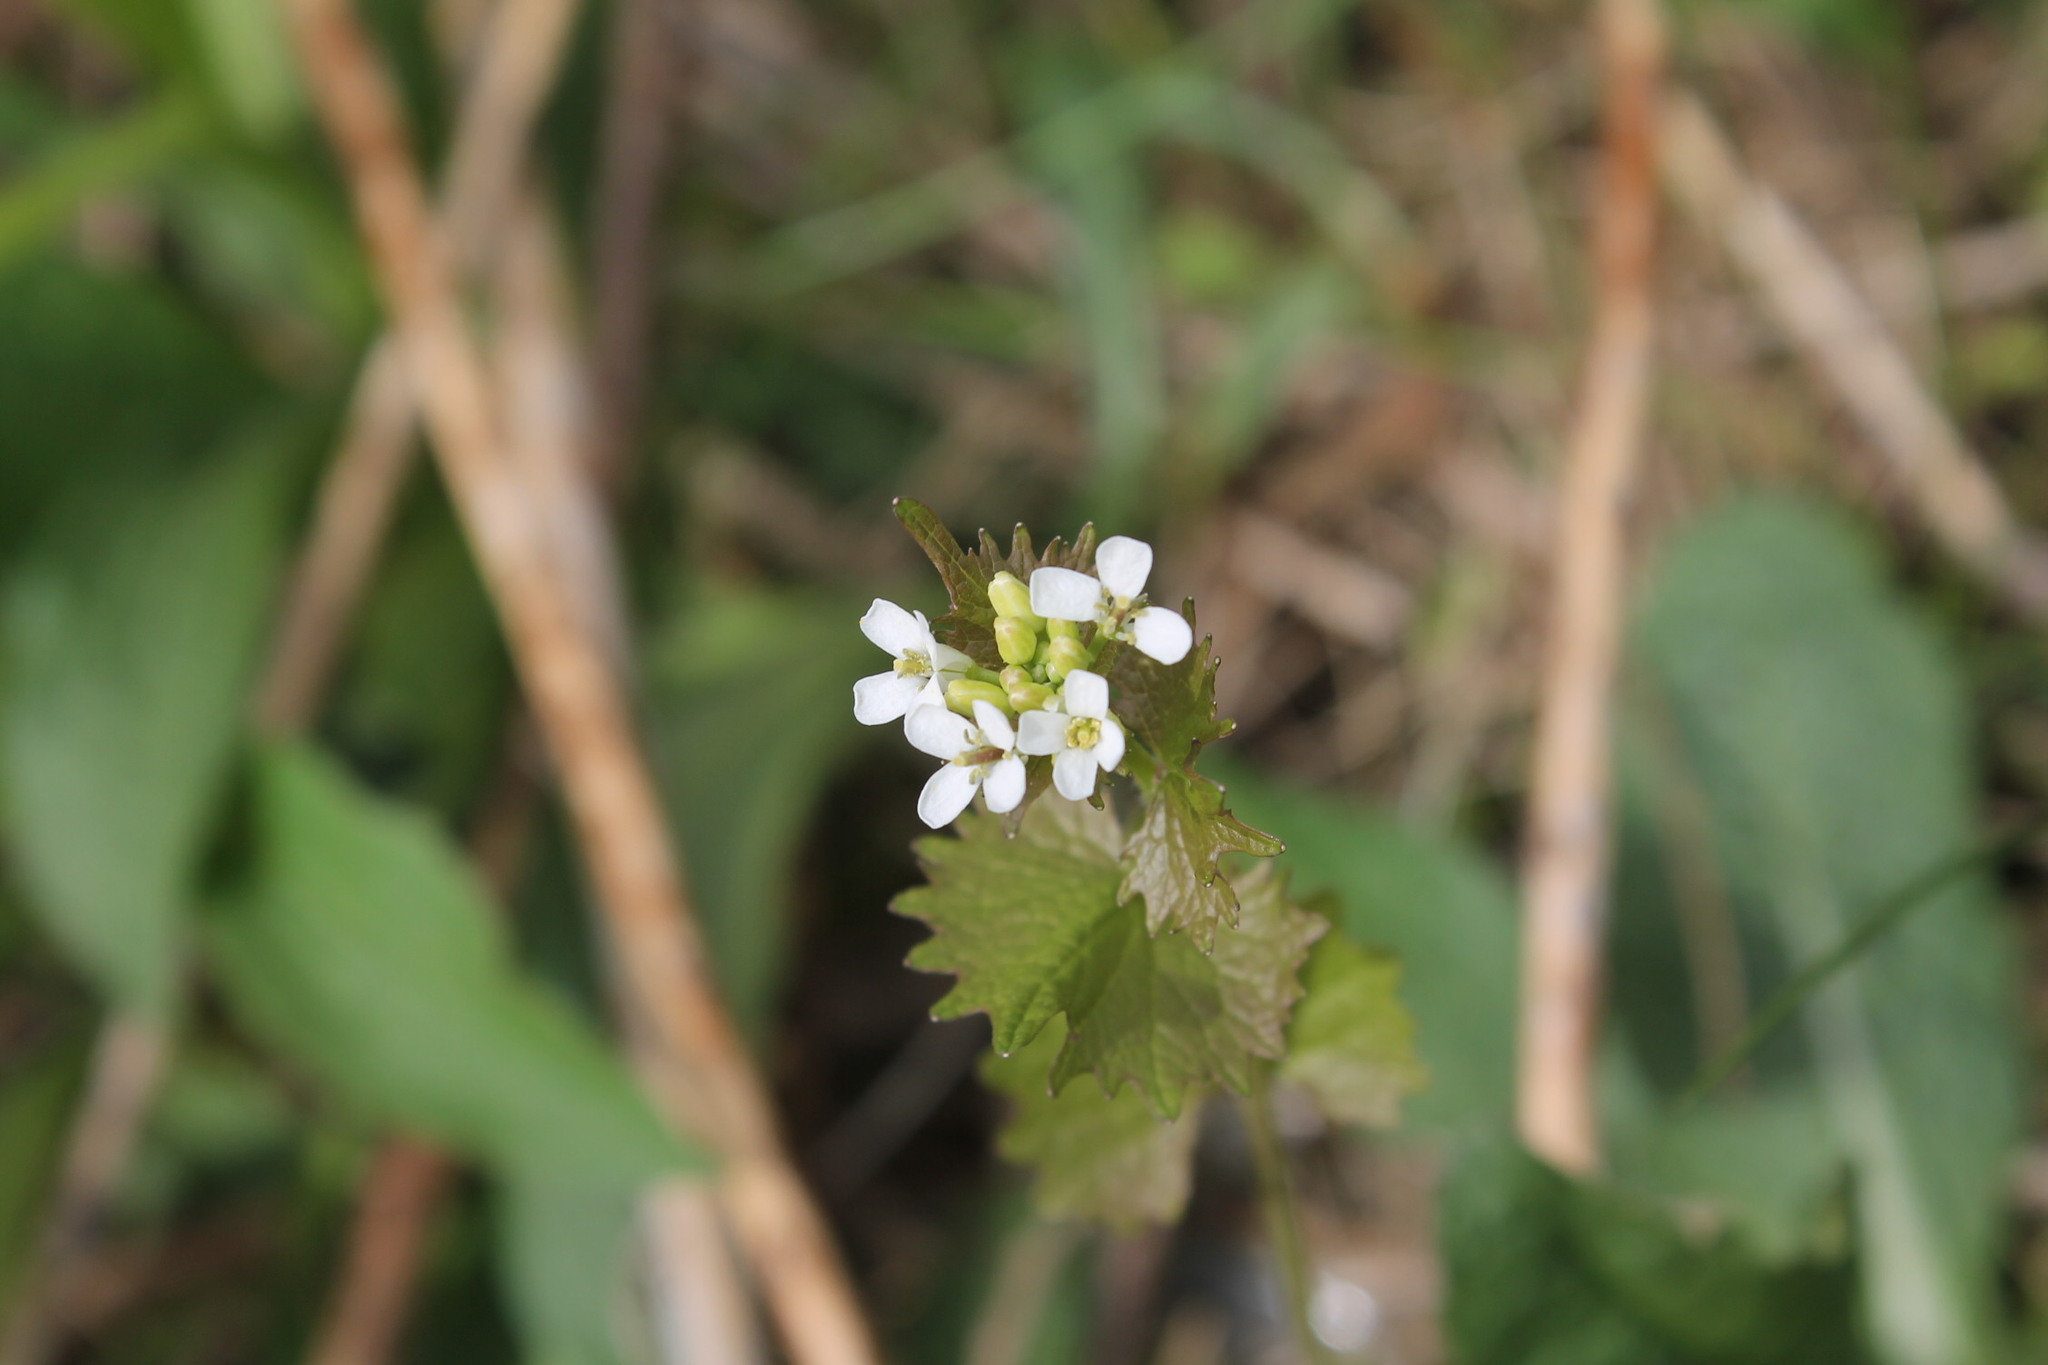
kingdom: Plantae
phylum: Tracheophyta
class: Magnoliopsida
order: Brassicales
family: Brassicaceae
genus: Alliaria
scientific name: Alliaria petiolata
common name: Garlic mustard
